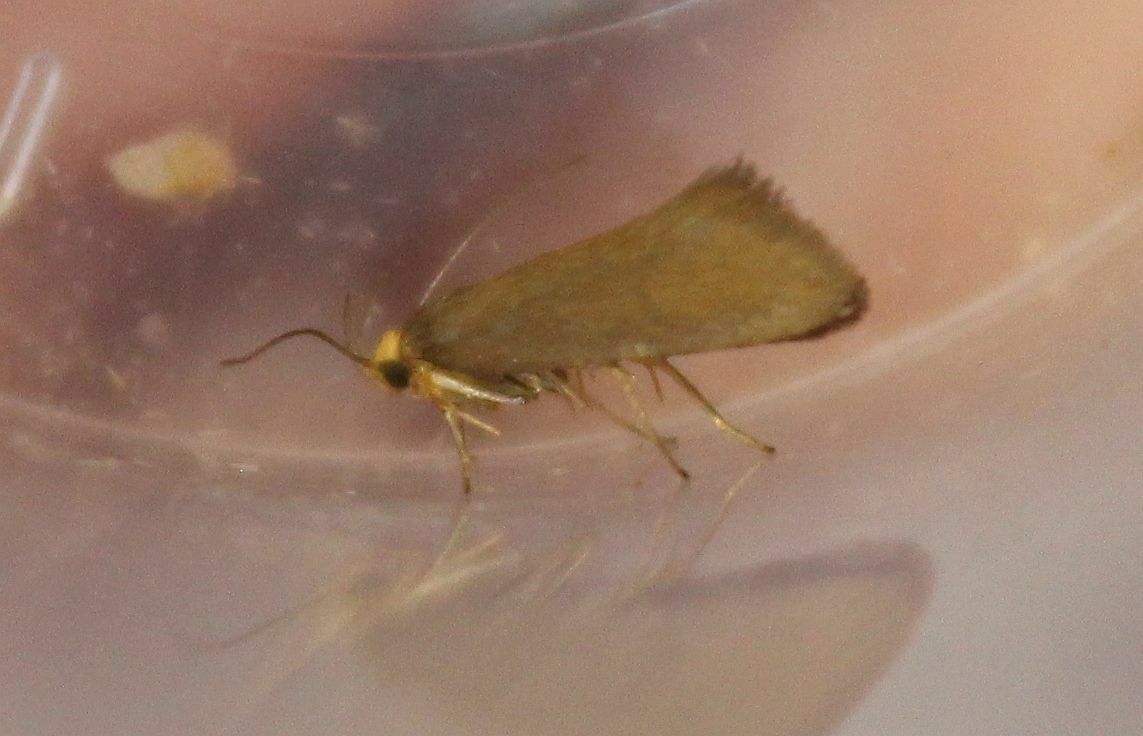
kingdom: Animalia
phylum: Arthropoda
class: Insecta
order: Lepidoptera
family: Oecophoridae
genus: Borkhausenia
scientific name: Borkhausenia Crassa unitella
